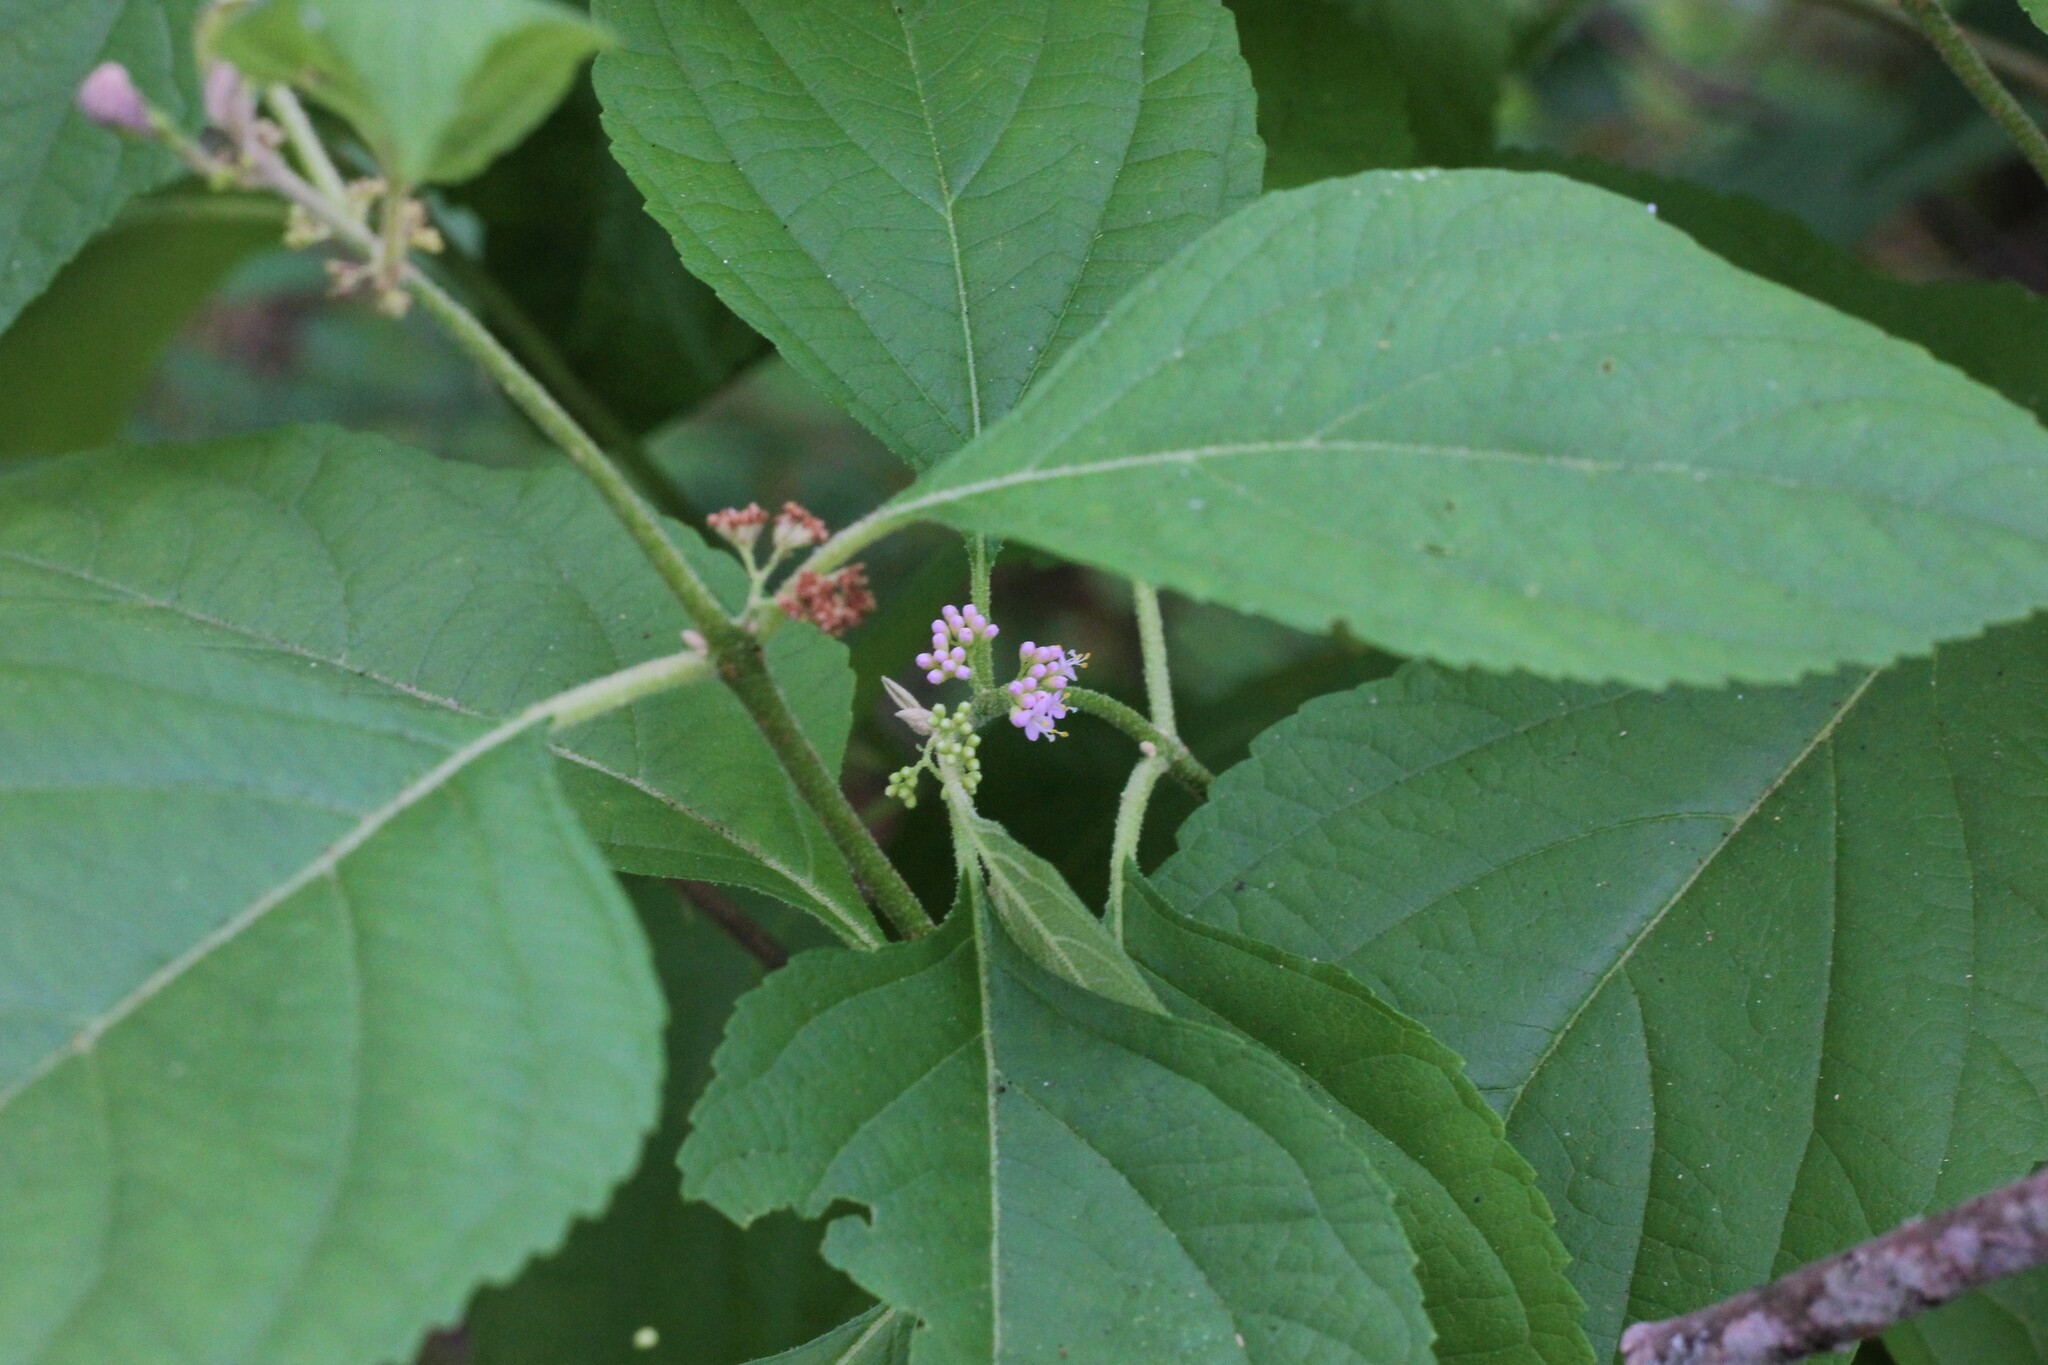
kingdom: Plantae
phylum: Tracheophyta
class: Magnoliopsida
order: Lamiales
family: Lamiaceae
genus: Callicarpa
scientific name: Callicarpa americana
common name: American beautyberry
